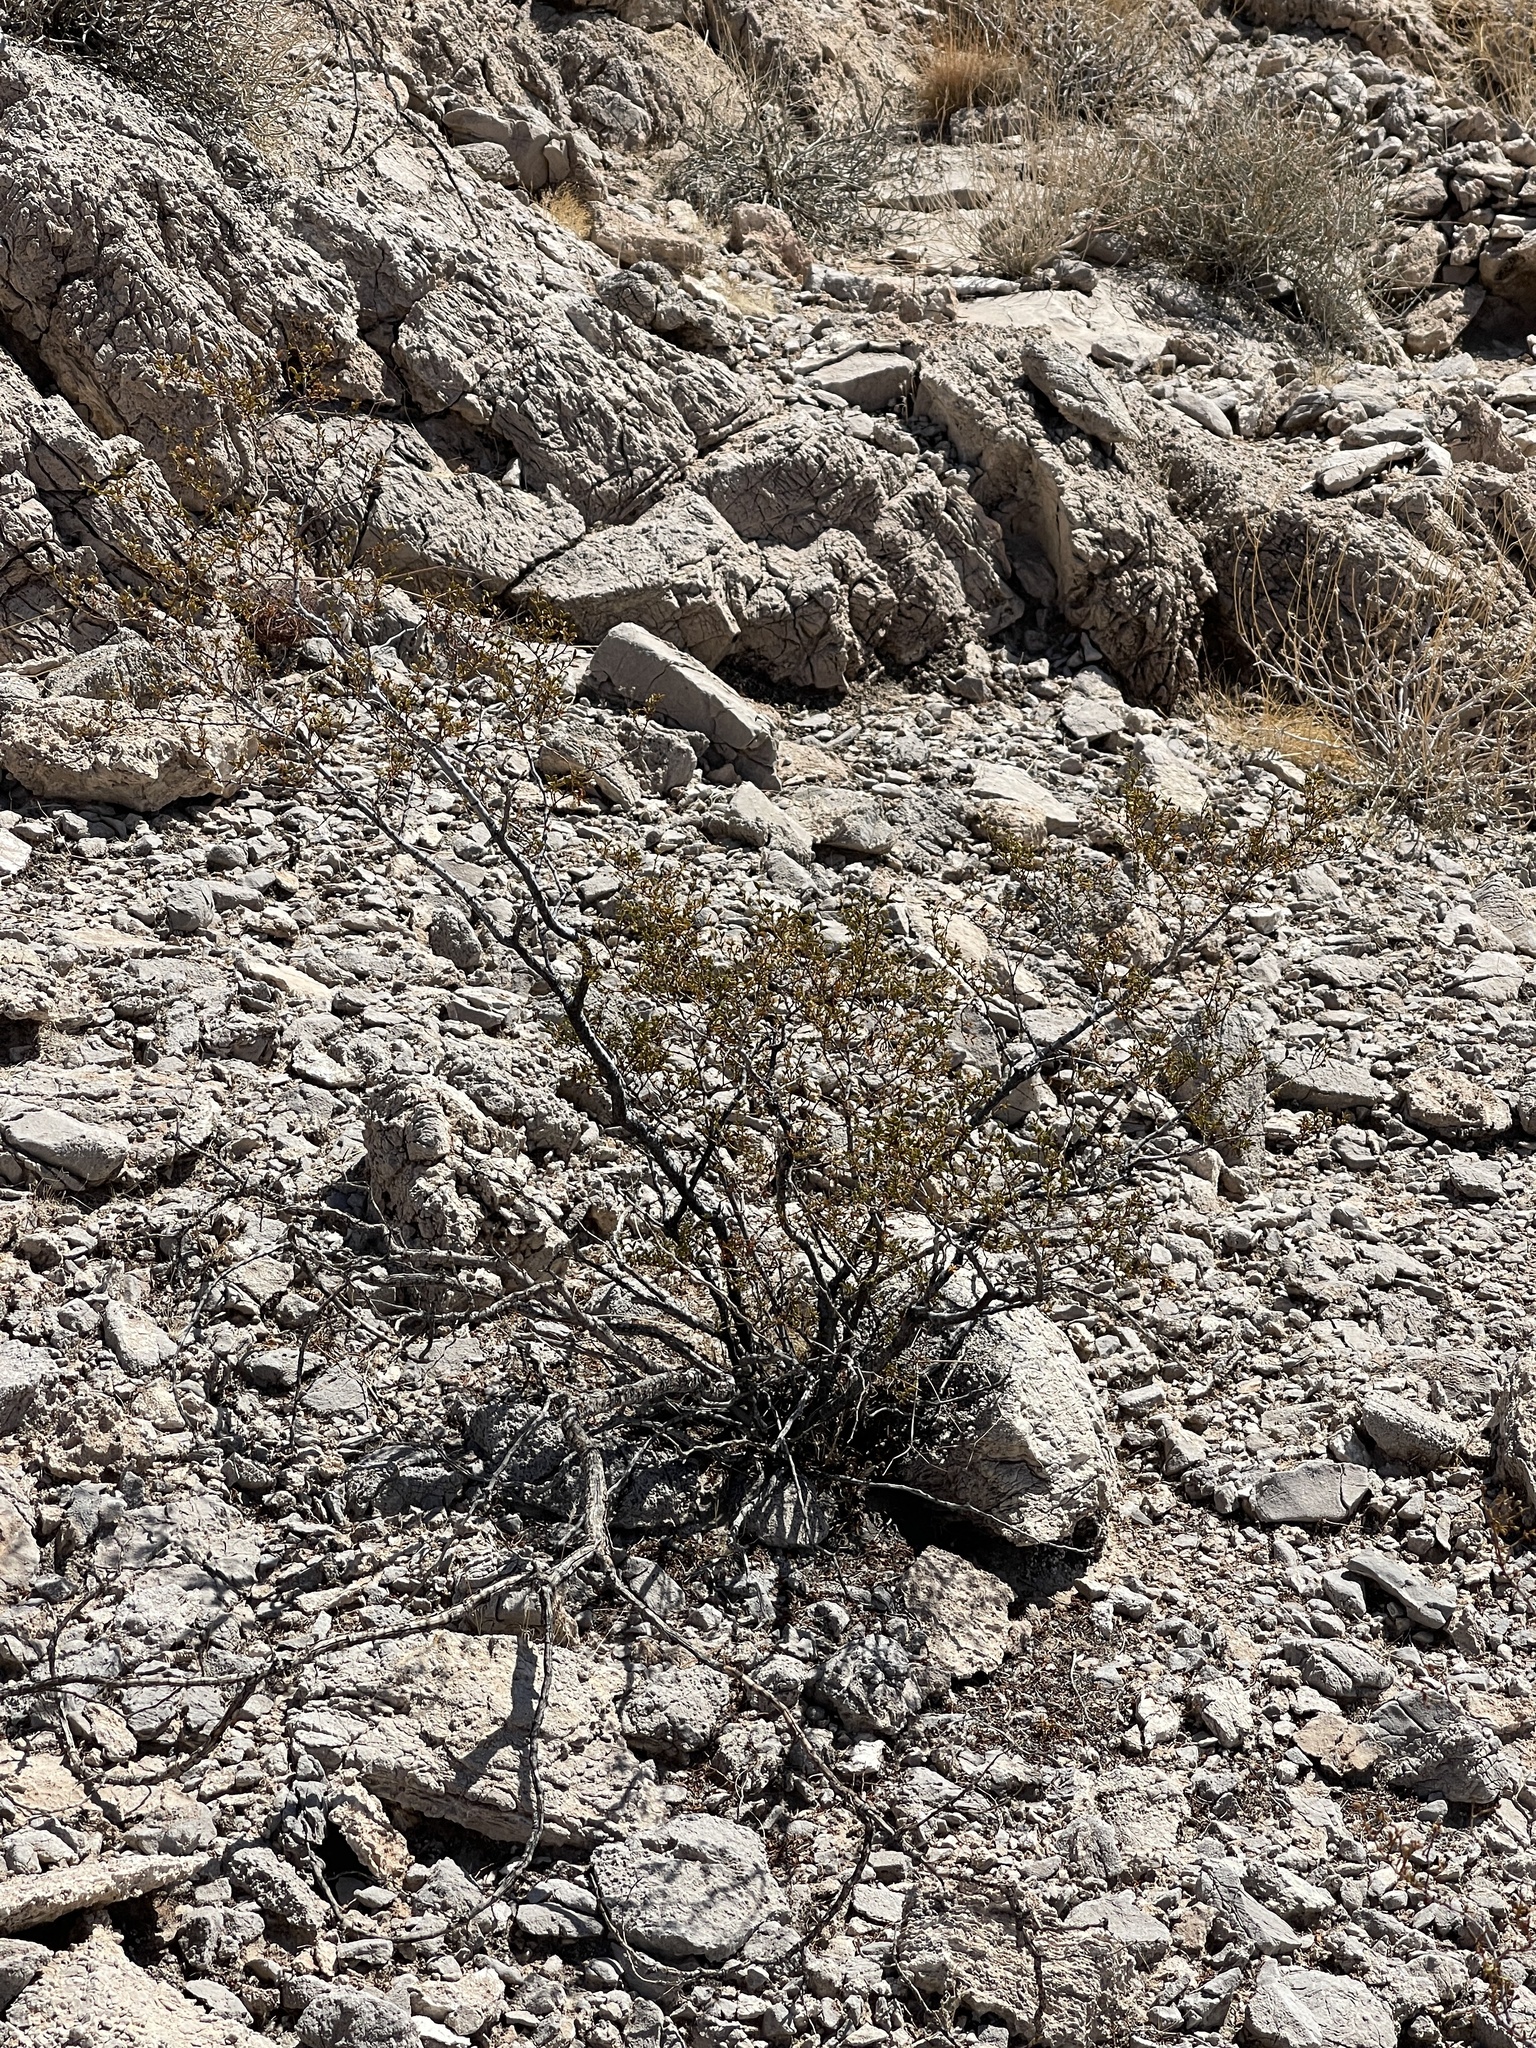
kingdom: Plantae
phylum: Tracheophyta
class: Magnoliopsida
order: Zygophyllales
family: Zygophyllaceae
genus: Larrea
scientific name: Larrea tridentata
